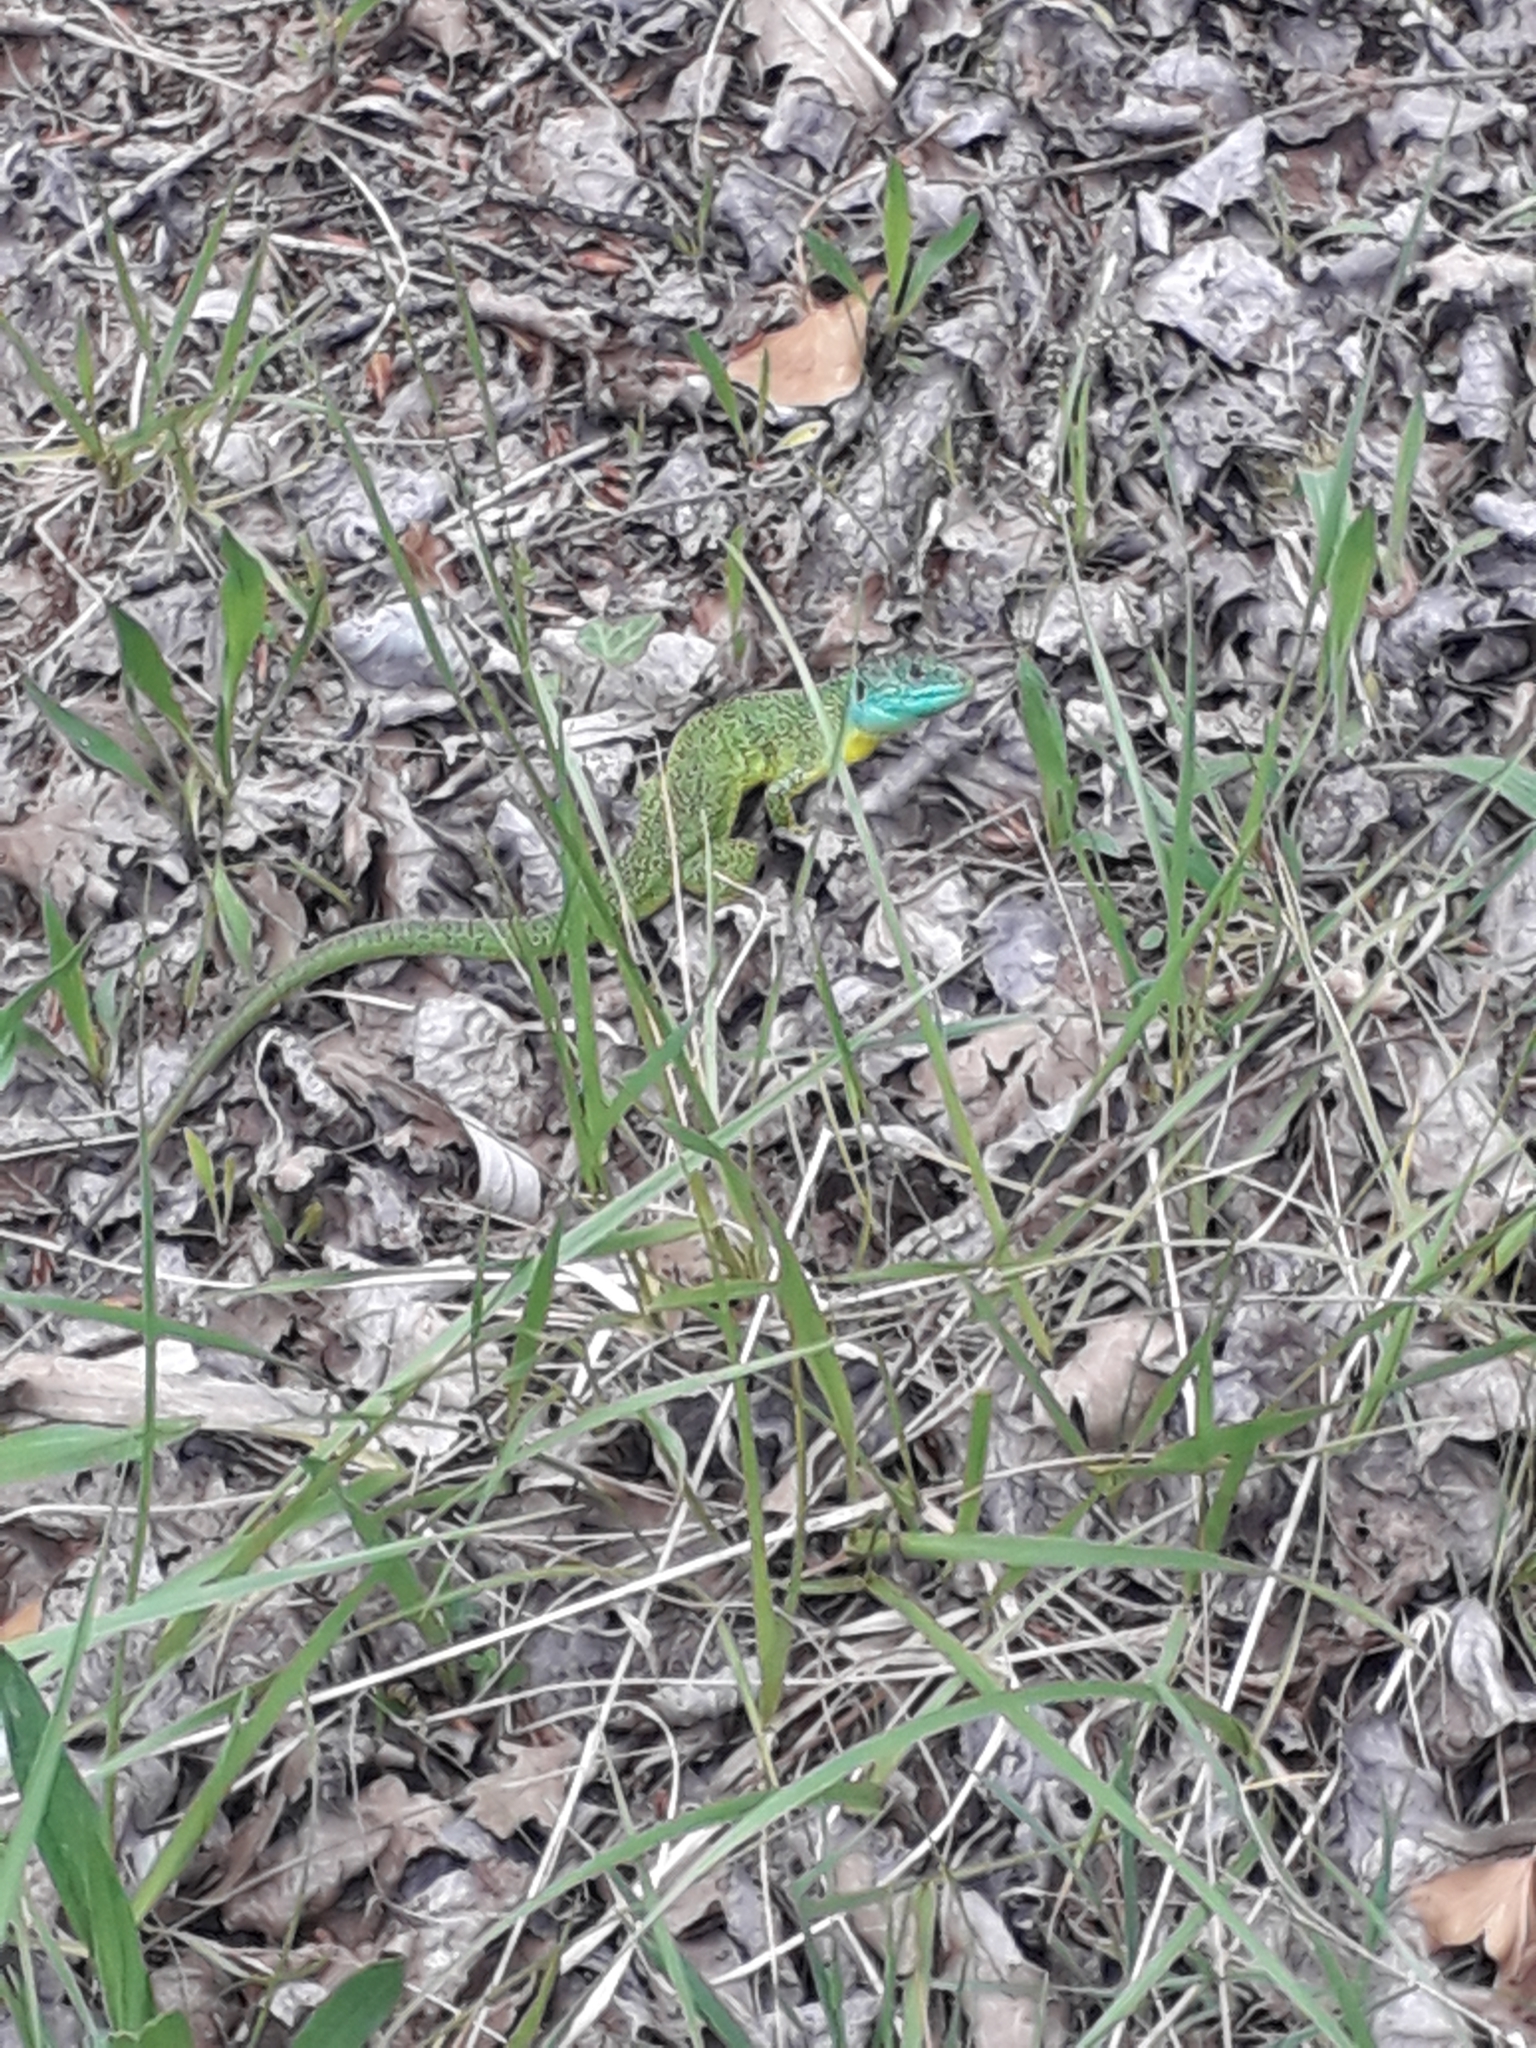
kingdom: Animalia
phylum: Chordata
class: Squamata
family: Lacertidae
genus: Lacerta
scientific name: Lacerta bilineata
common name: Western green lizard
